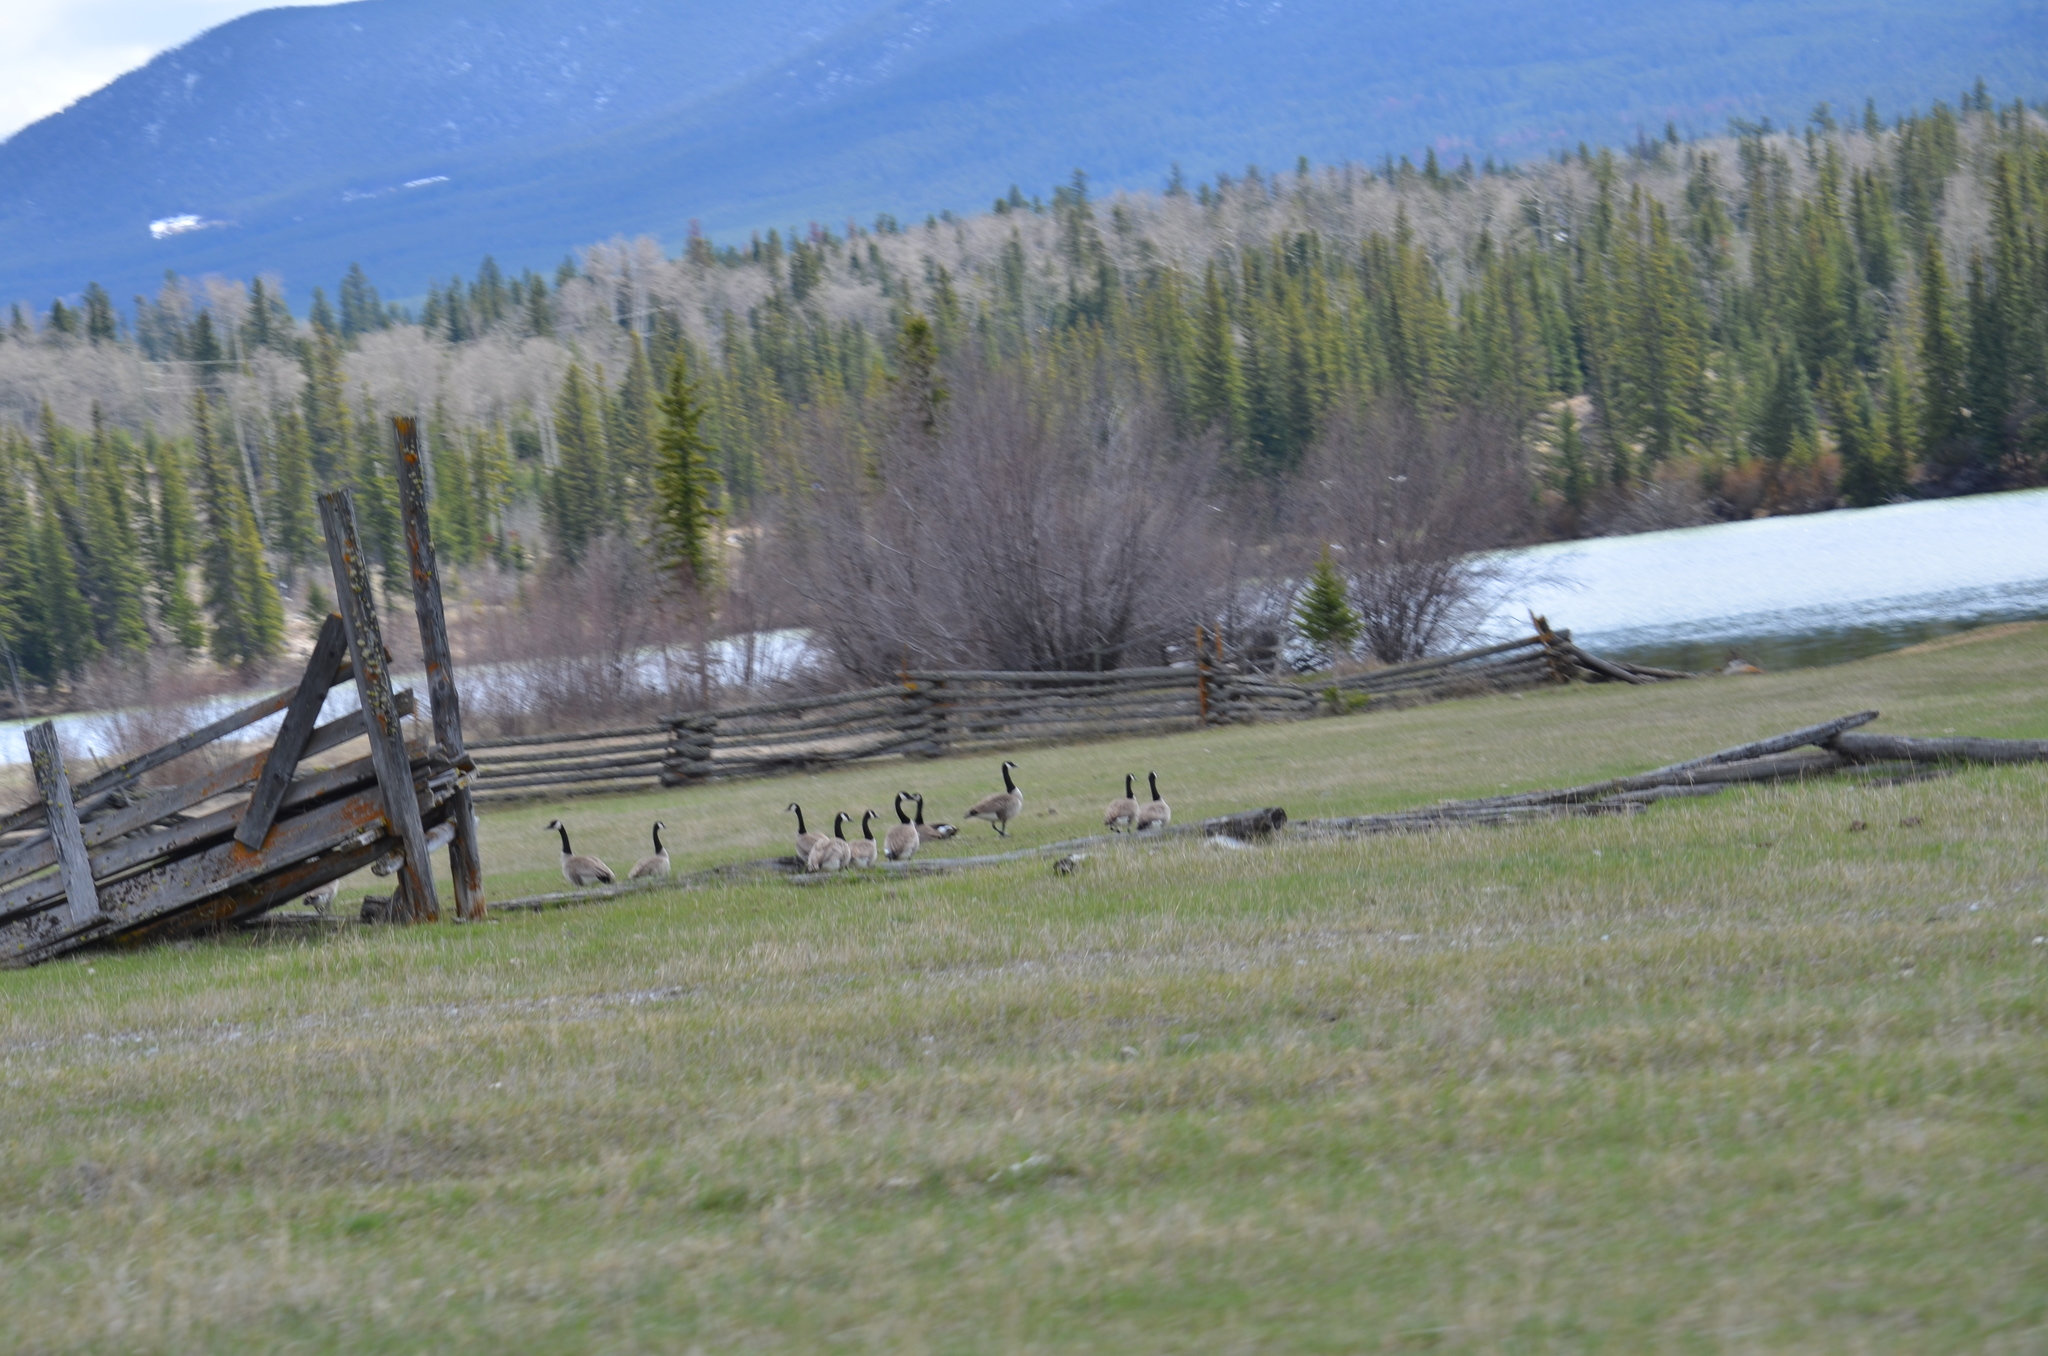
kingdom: Animalia
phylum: Chordata
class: Aves
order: Anseriformes
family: Anatidae
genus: Branta
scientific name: Branta canadensis
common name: Canada goose
